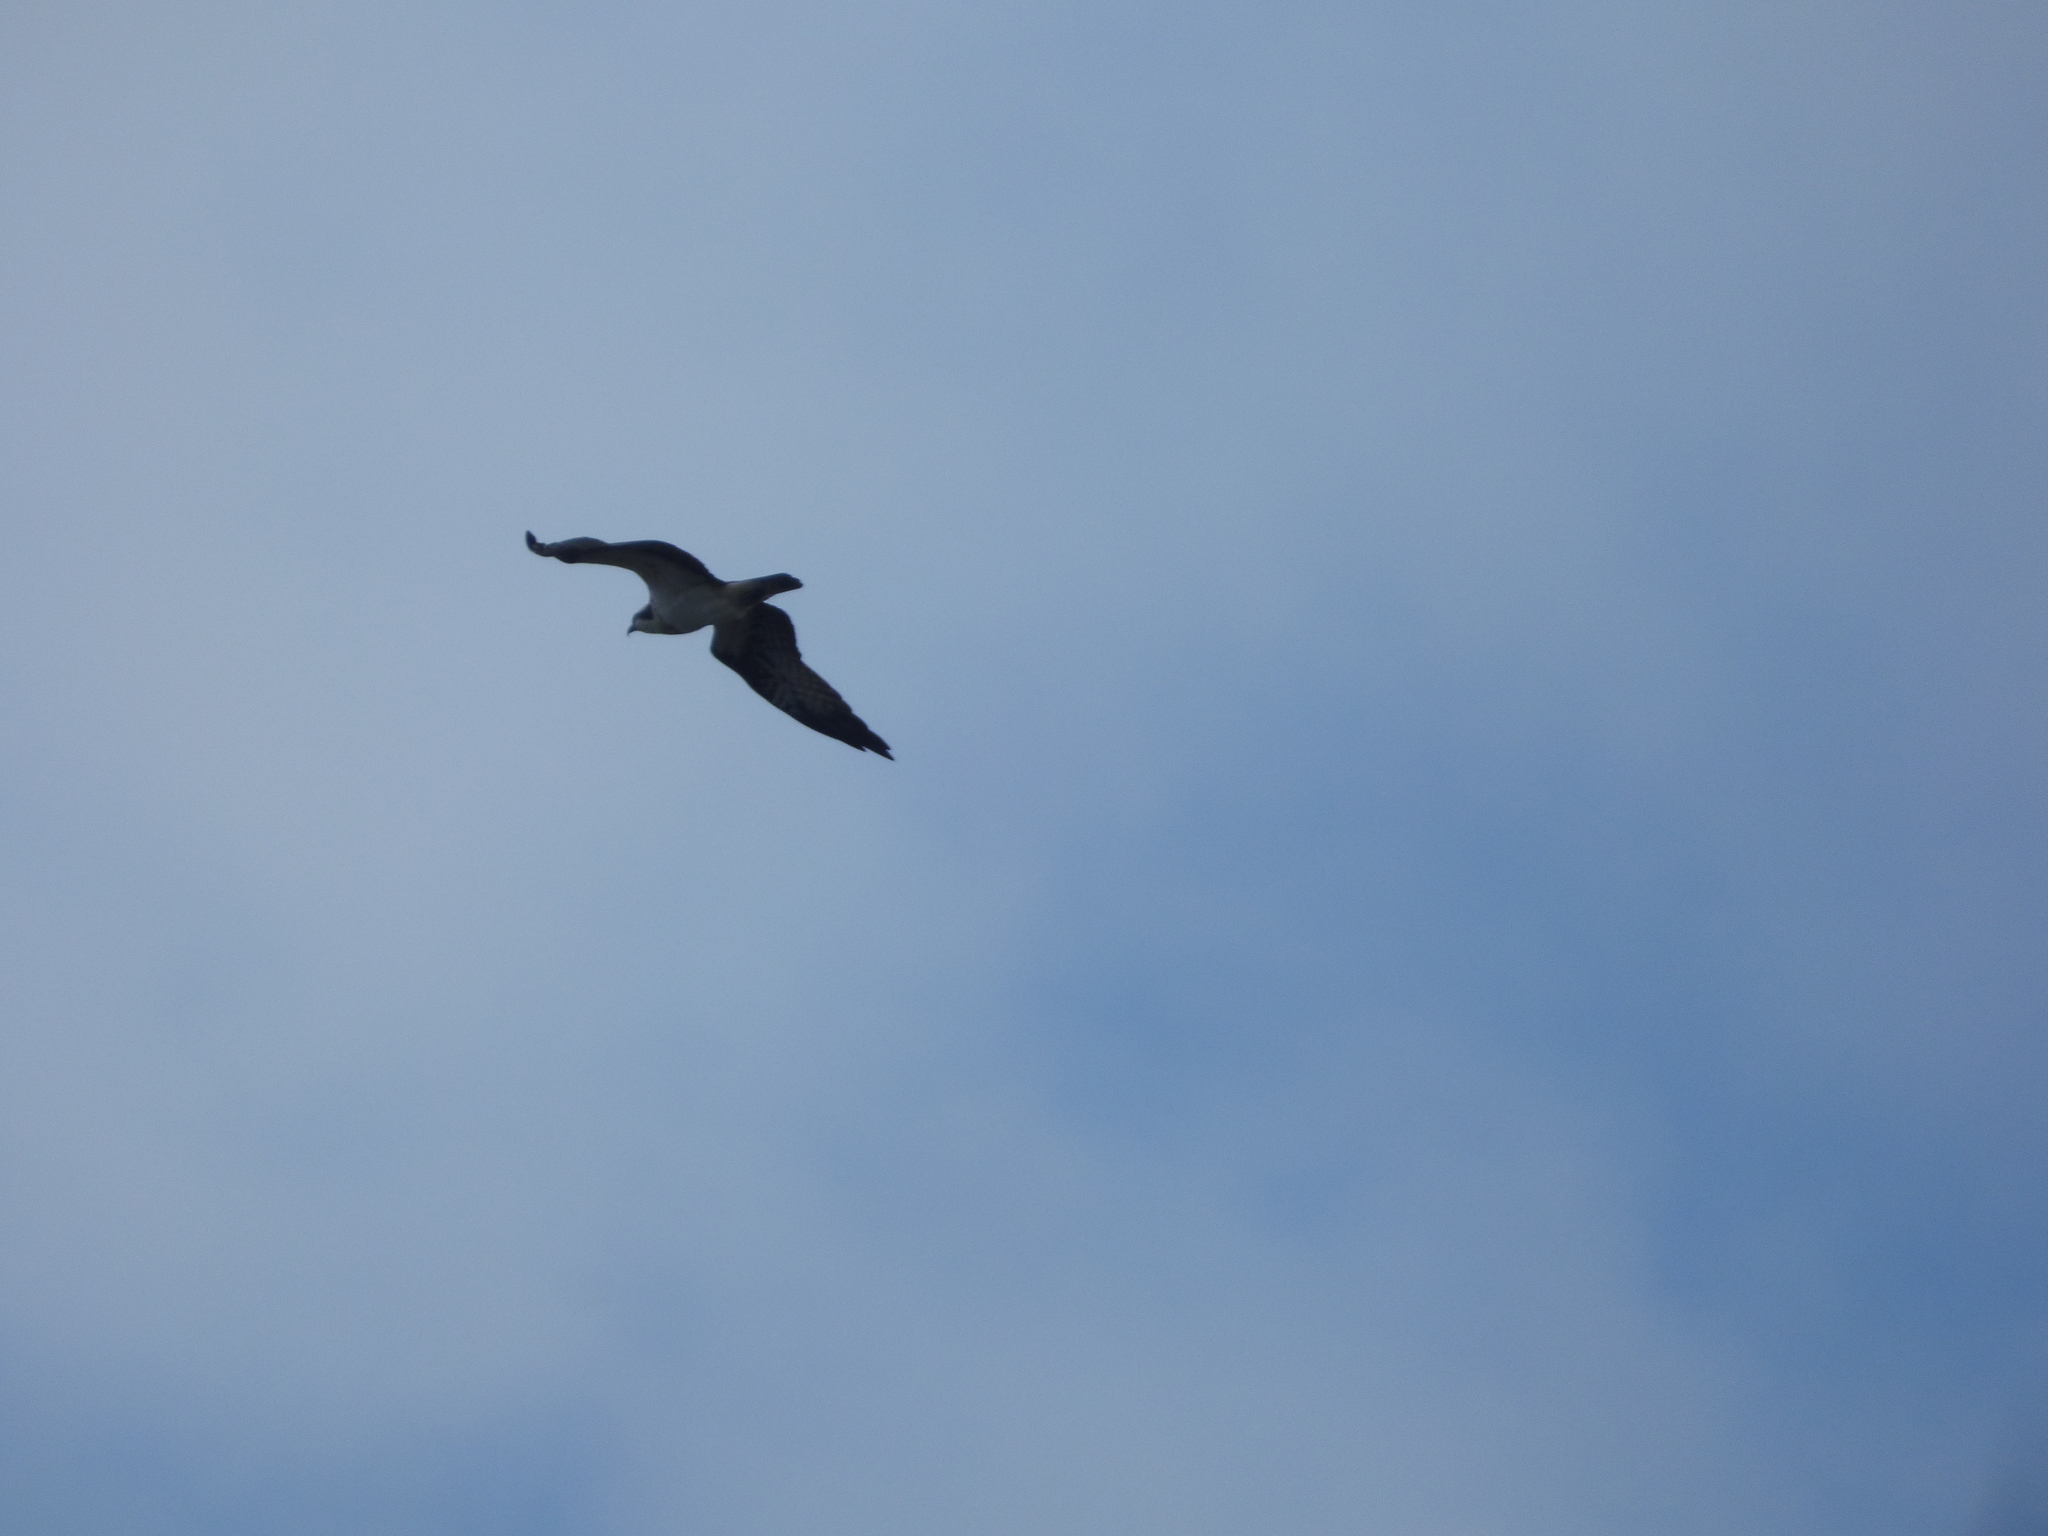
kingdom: Animalia
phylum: Chordata
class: Aves
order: Accipitriformes
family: Pandionidae
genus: Pandion
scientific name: Pandion haliaetus
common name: Osprey
